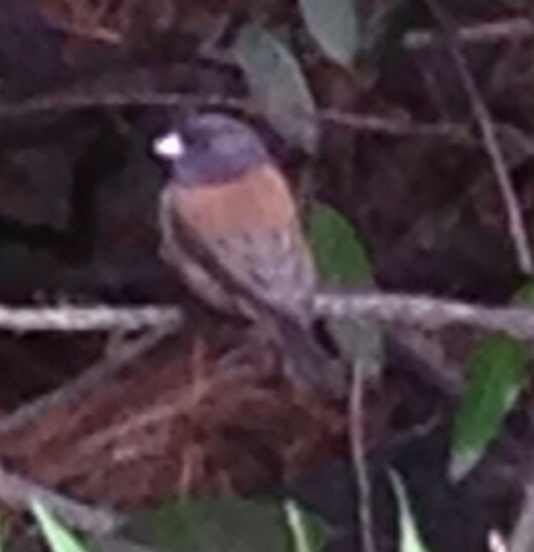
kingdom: Animalia
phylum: Chordata
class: Aves
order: Passeriformes
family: Passerellidae
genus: Junco
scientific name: Junco hyemalis
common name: Dark-eyed junco
